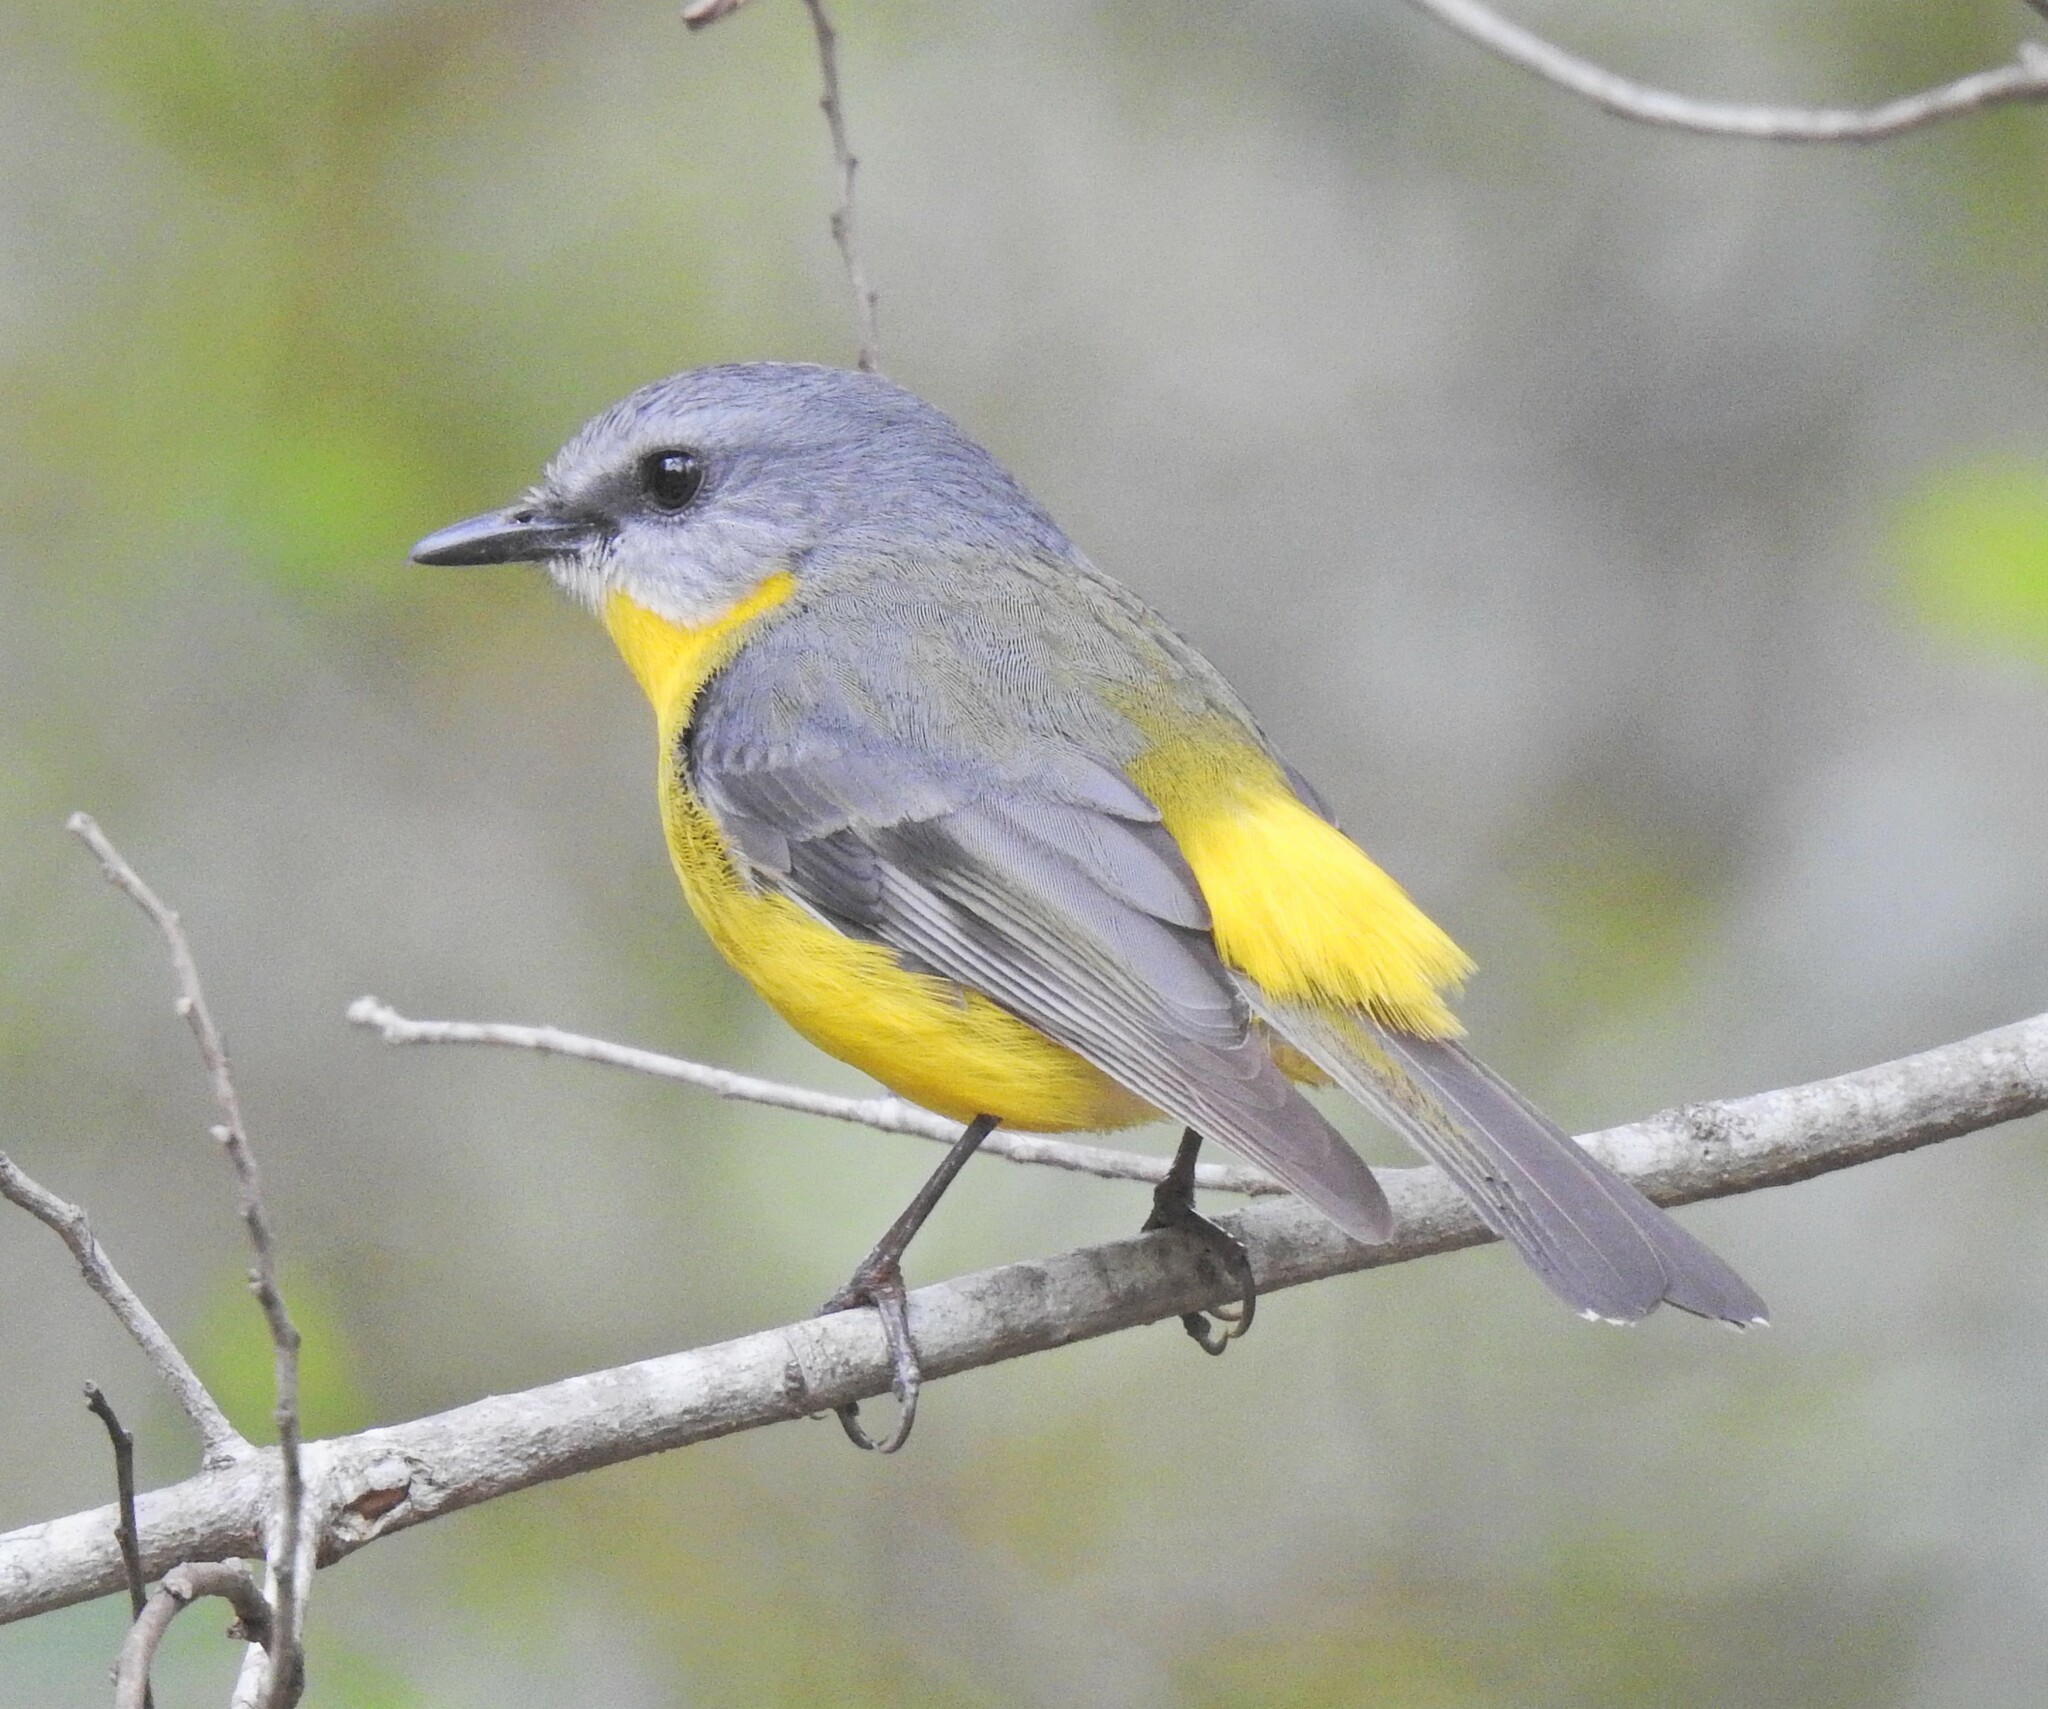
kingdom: Animalia
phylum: Chordata
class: Aves
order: Passeriformes
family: Petroicidae
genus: Eopsaltria
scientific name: Eopsaltria australis
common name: Eastern yellow robin
